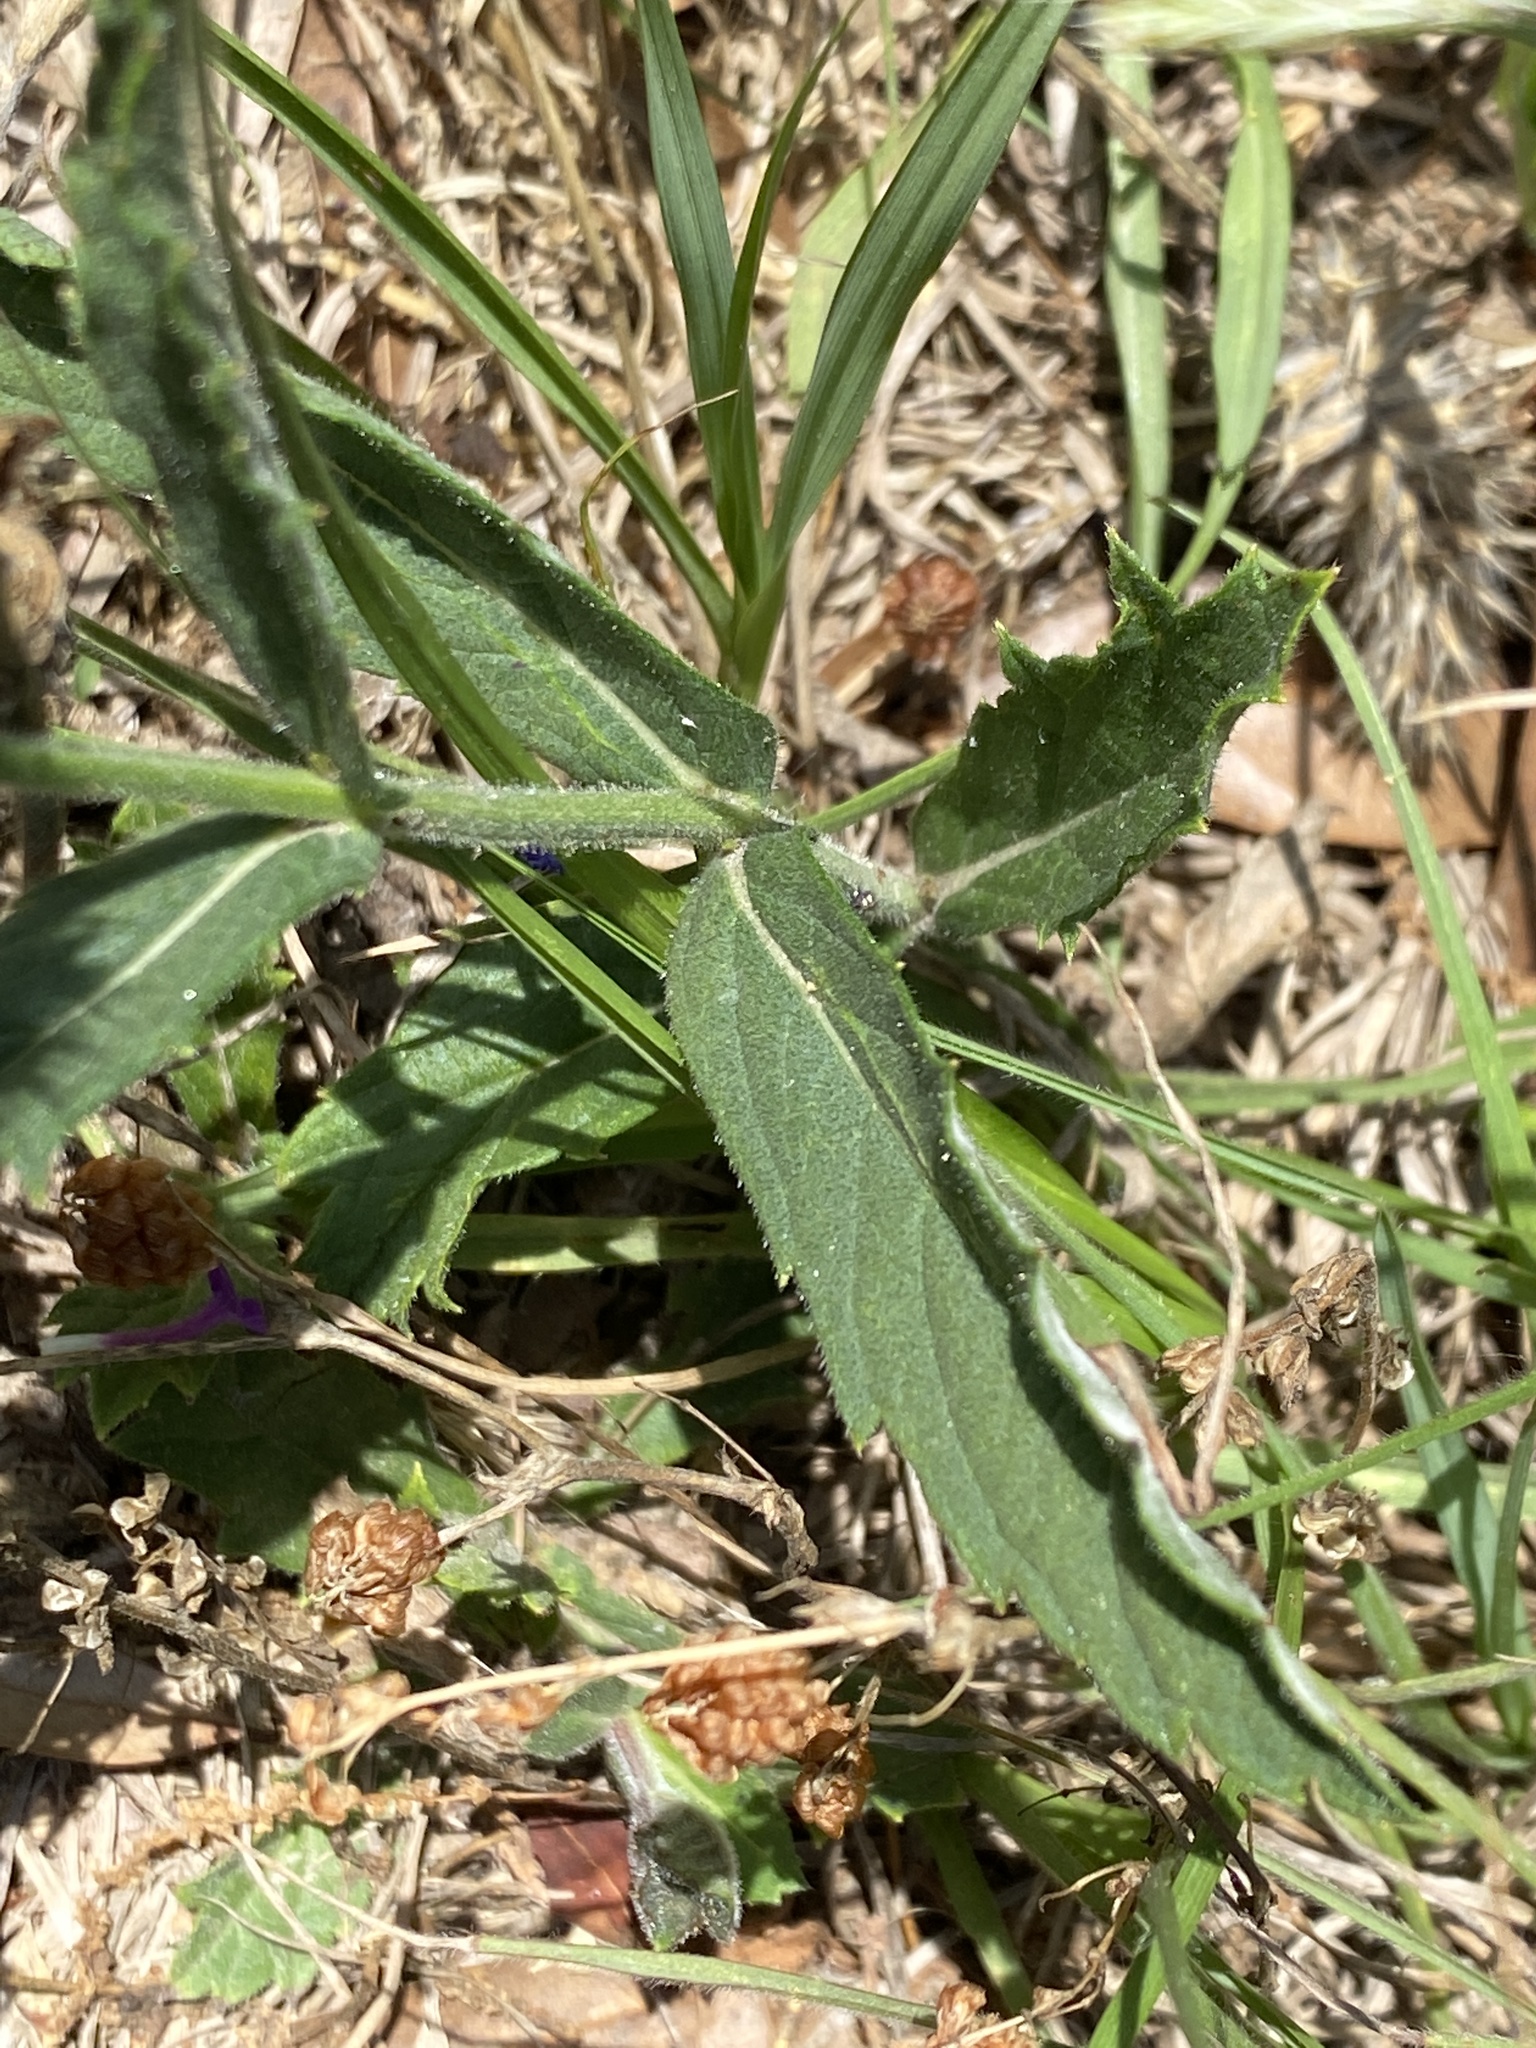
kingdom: Plantae
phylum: Tracheophyta
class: Magnoliopsida
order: Lamiales
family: Verbenaceae
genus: Verbena
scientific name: Verbena canadensis
